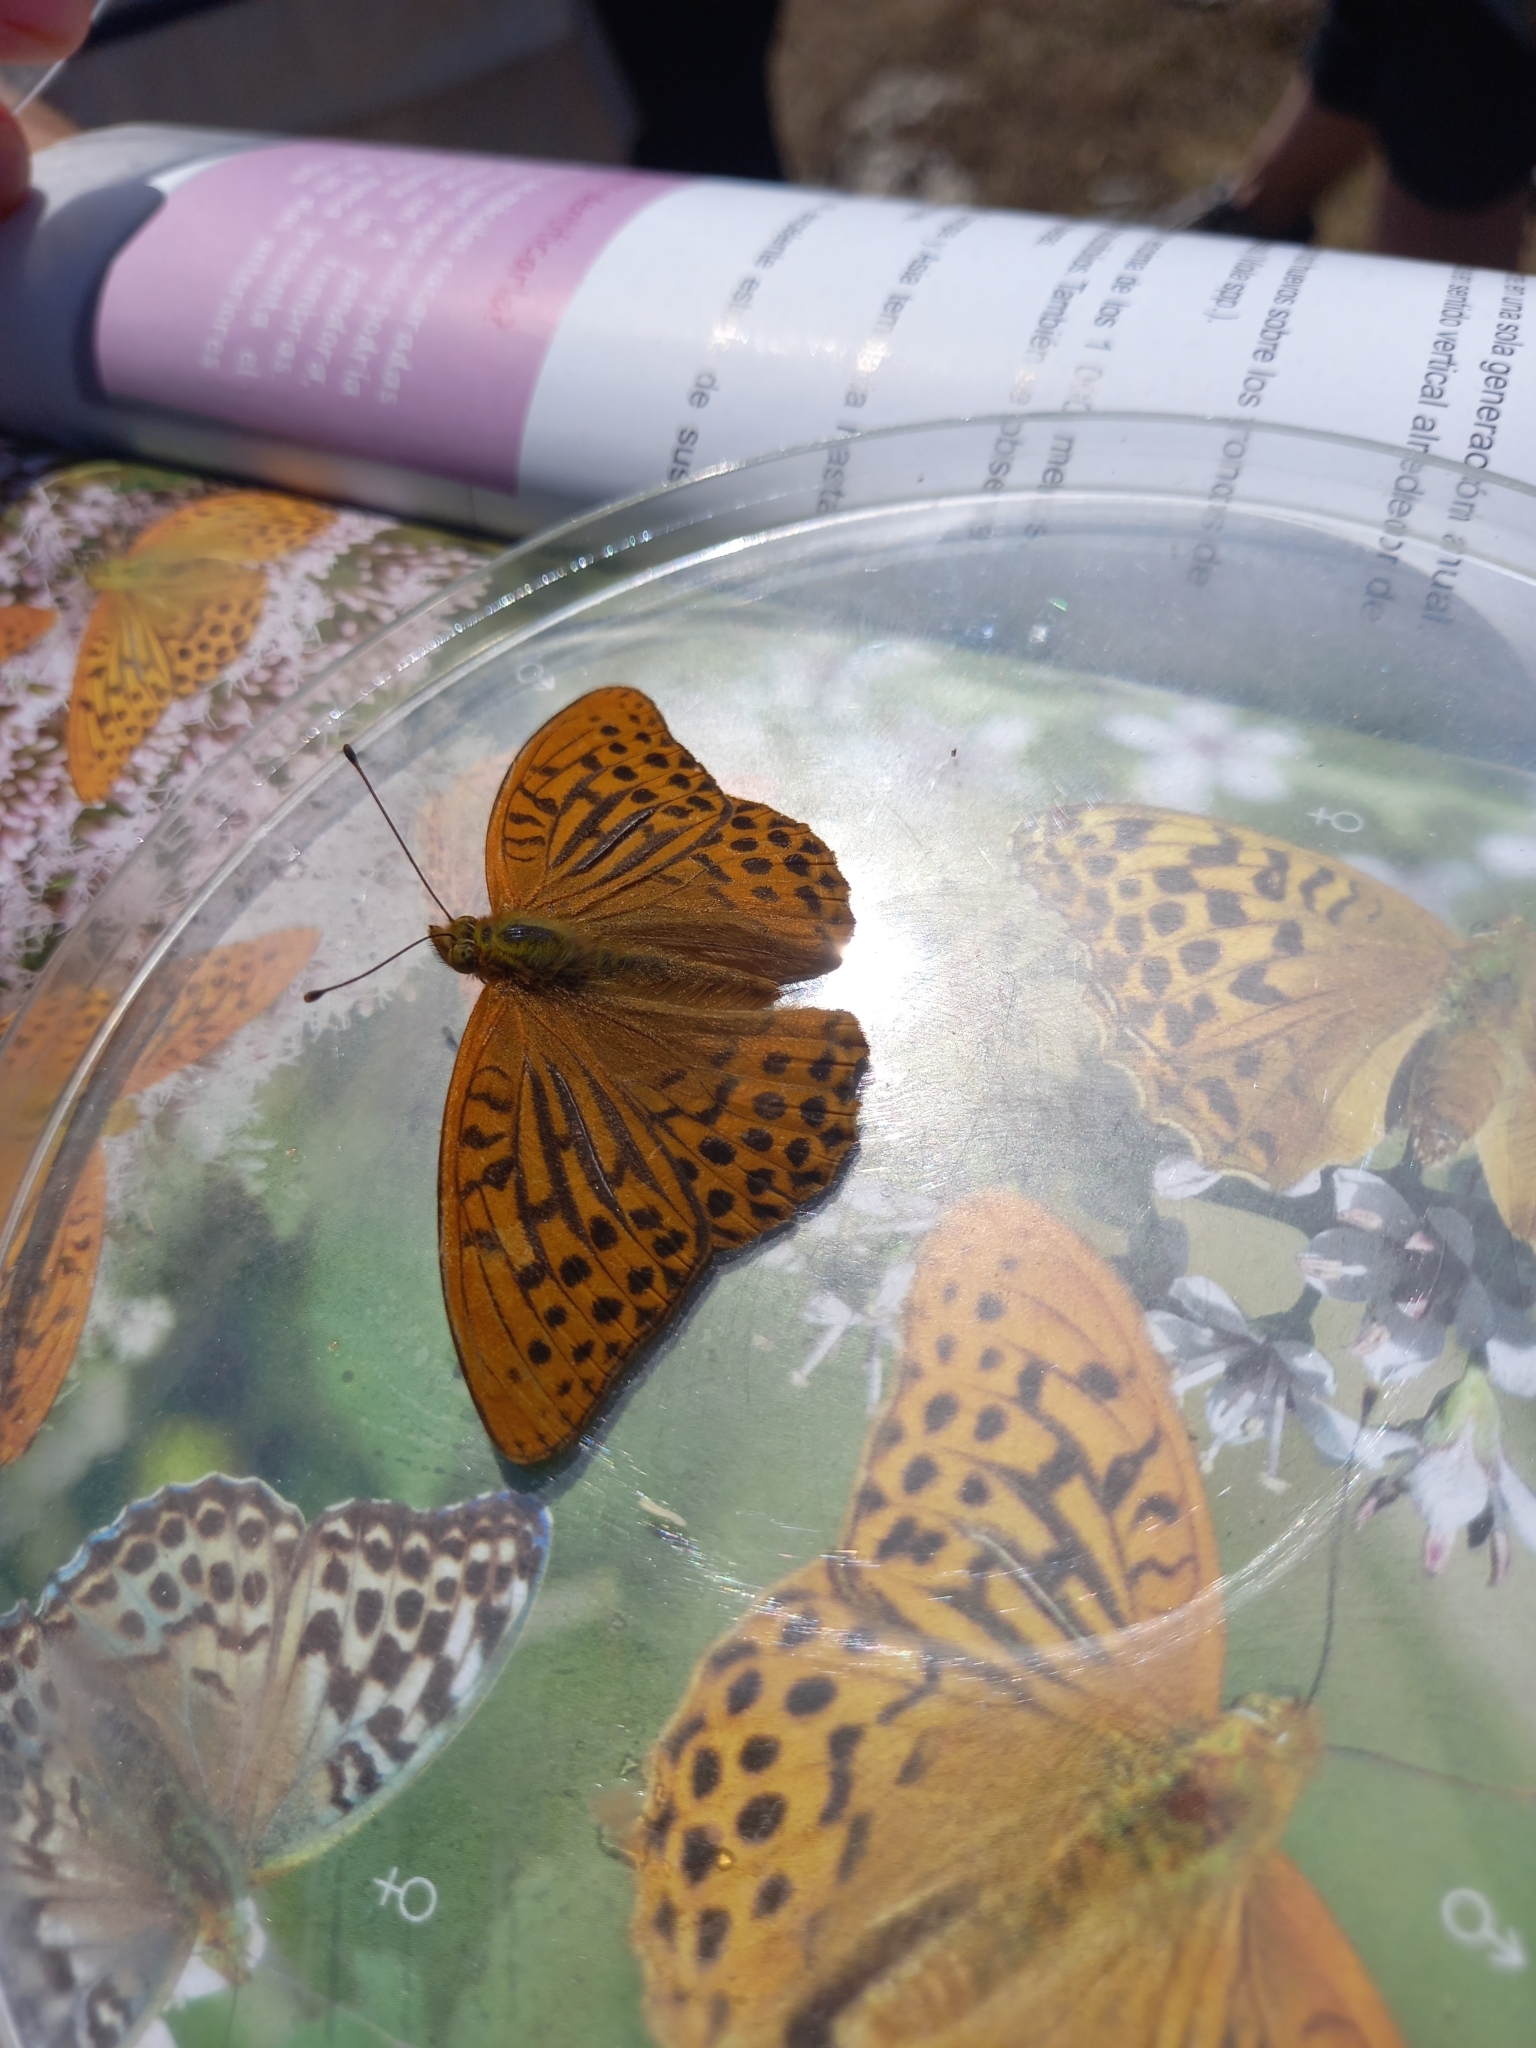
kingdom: Animalia
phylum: Arthropoda
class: Insecta
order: Lepidoptera
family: Nymphalidae
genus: Argynnis
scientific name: Argynnis paphia
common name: Silver-washed fritillary
